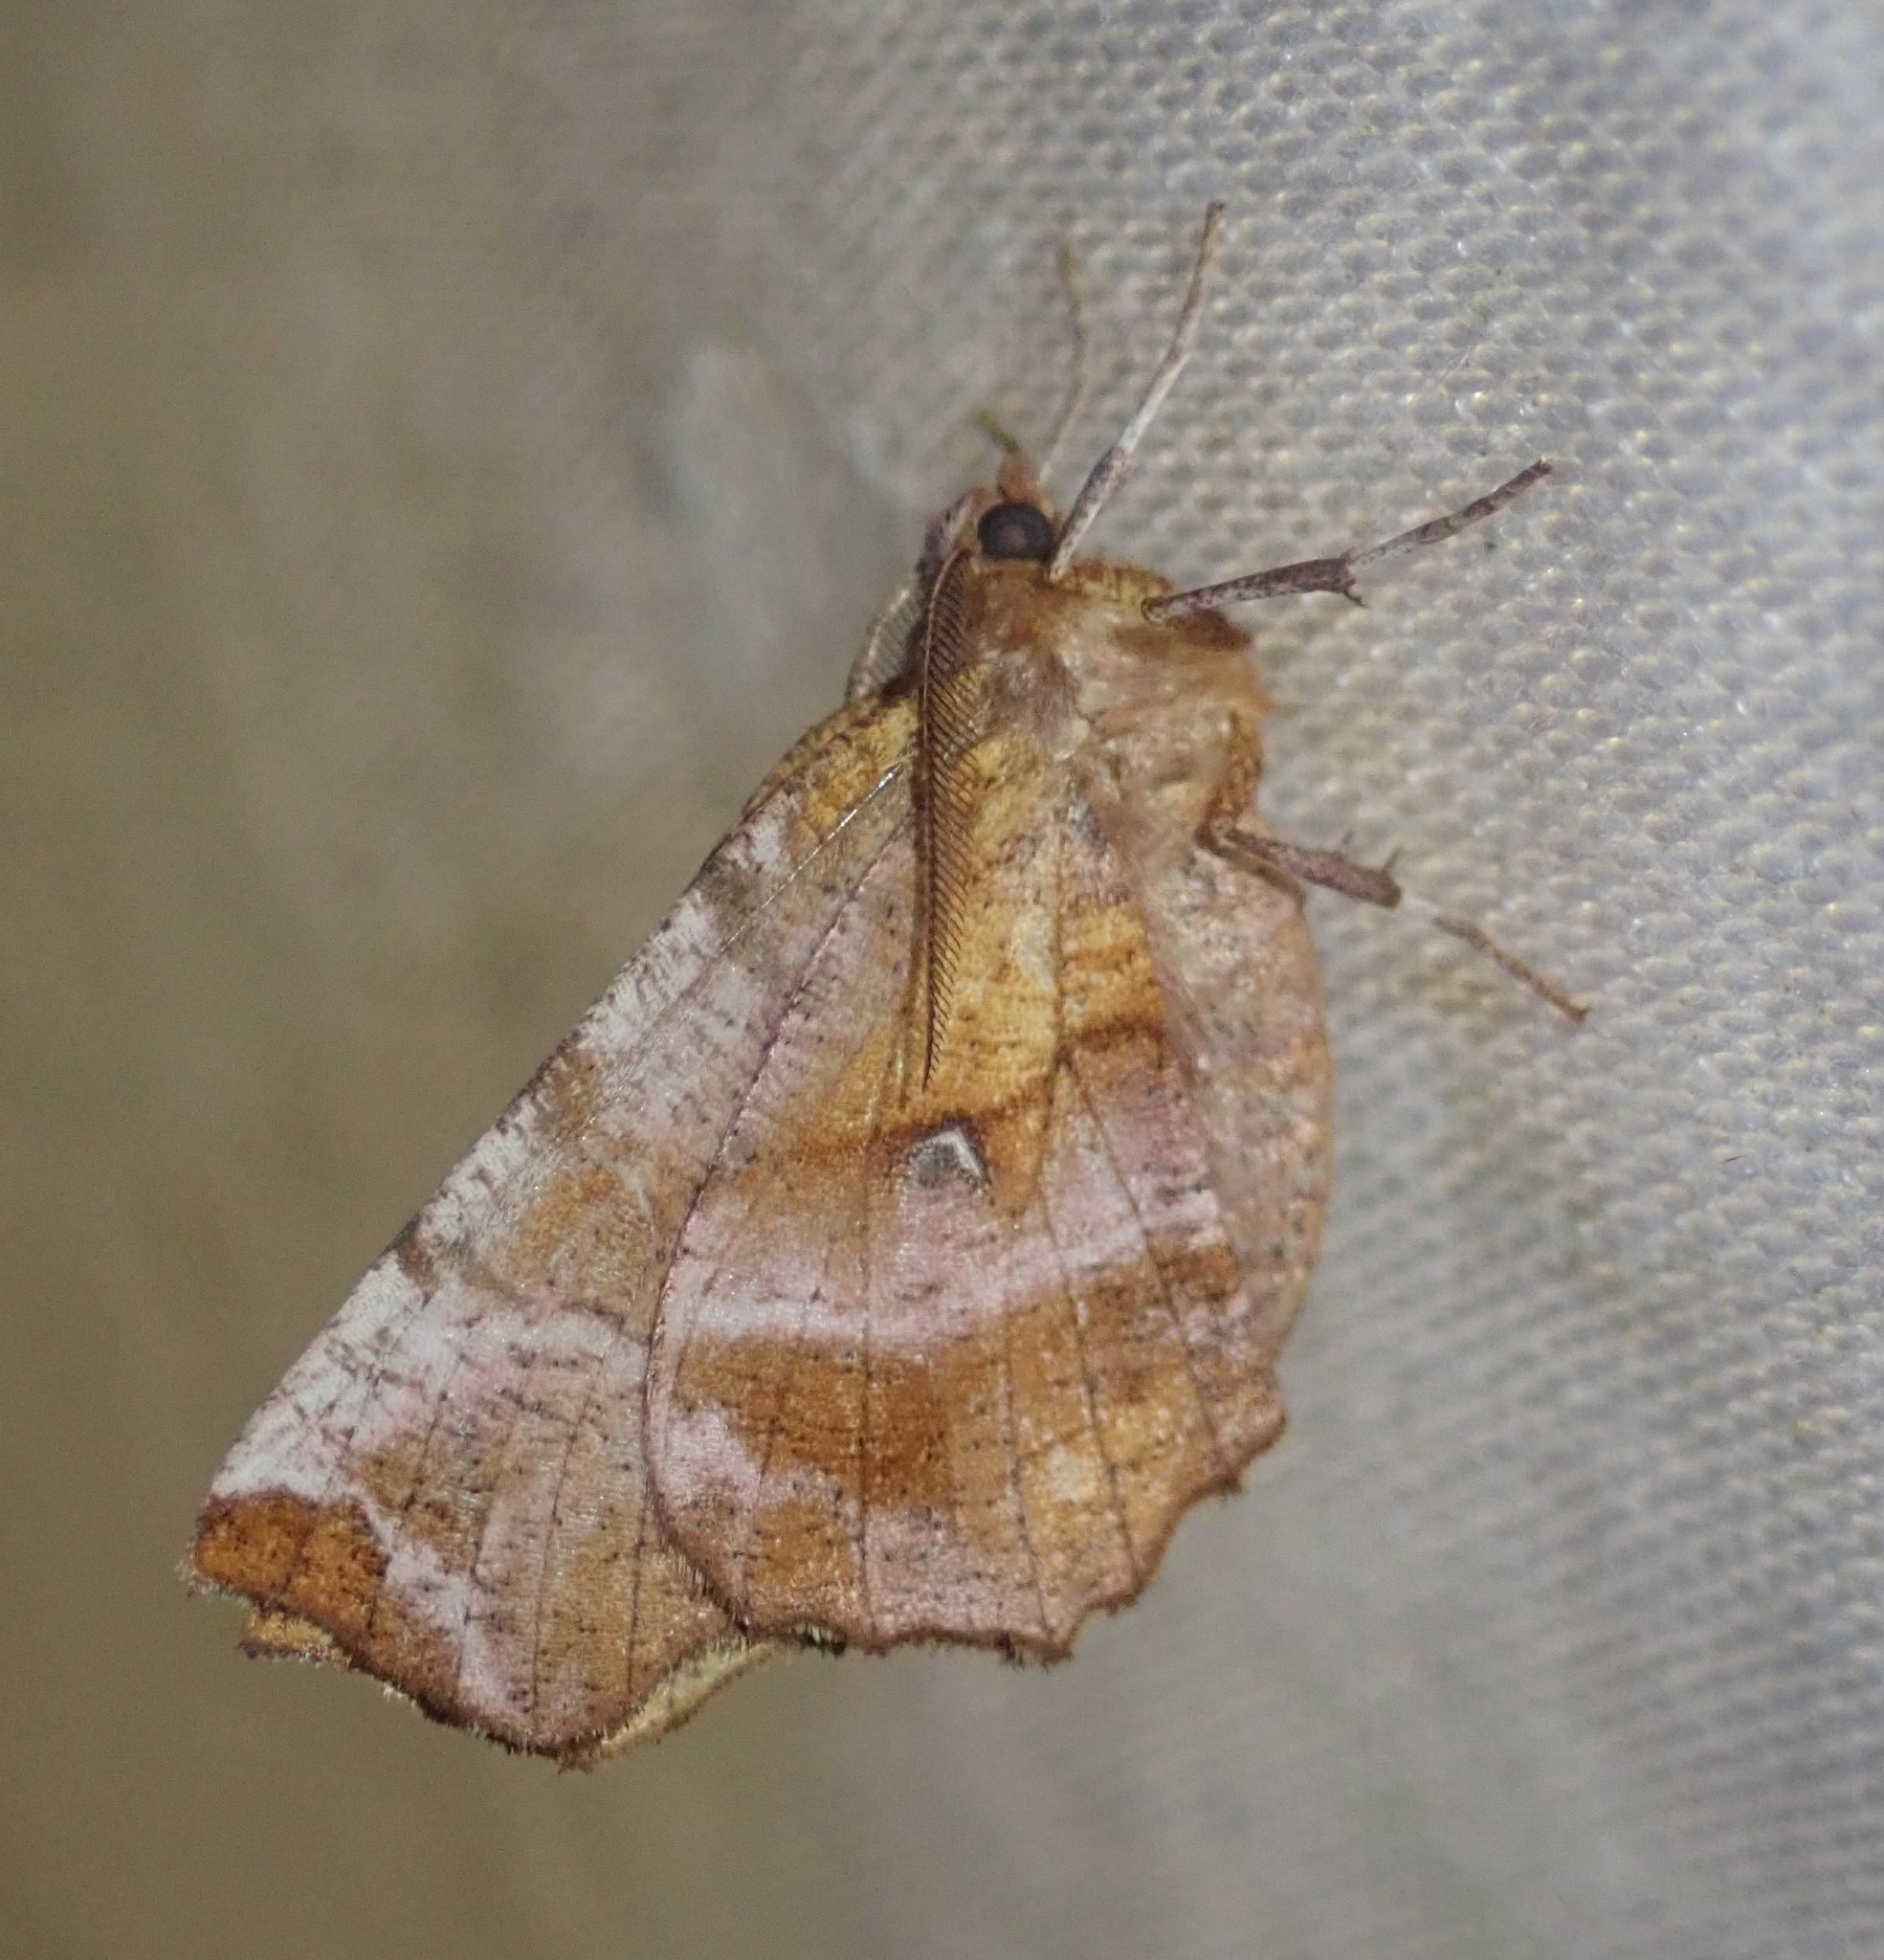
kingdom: Animalia
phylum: Arthropoda
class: Insecta
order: Lepidoptera
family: Geometridae
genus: Selenia
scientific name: Selenia dentaria
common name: Early thorn
